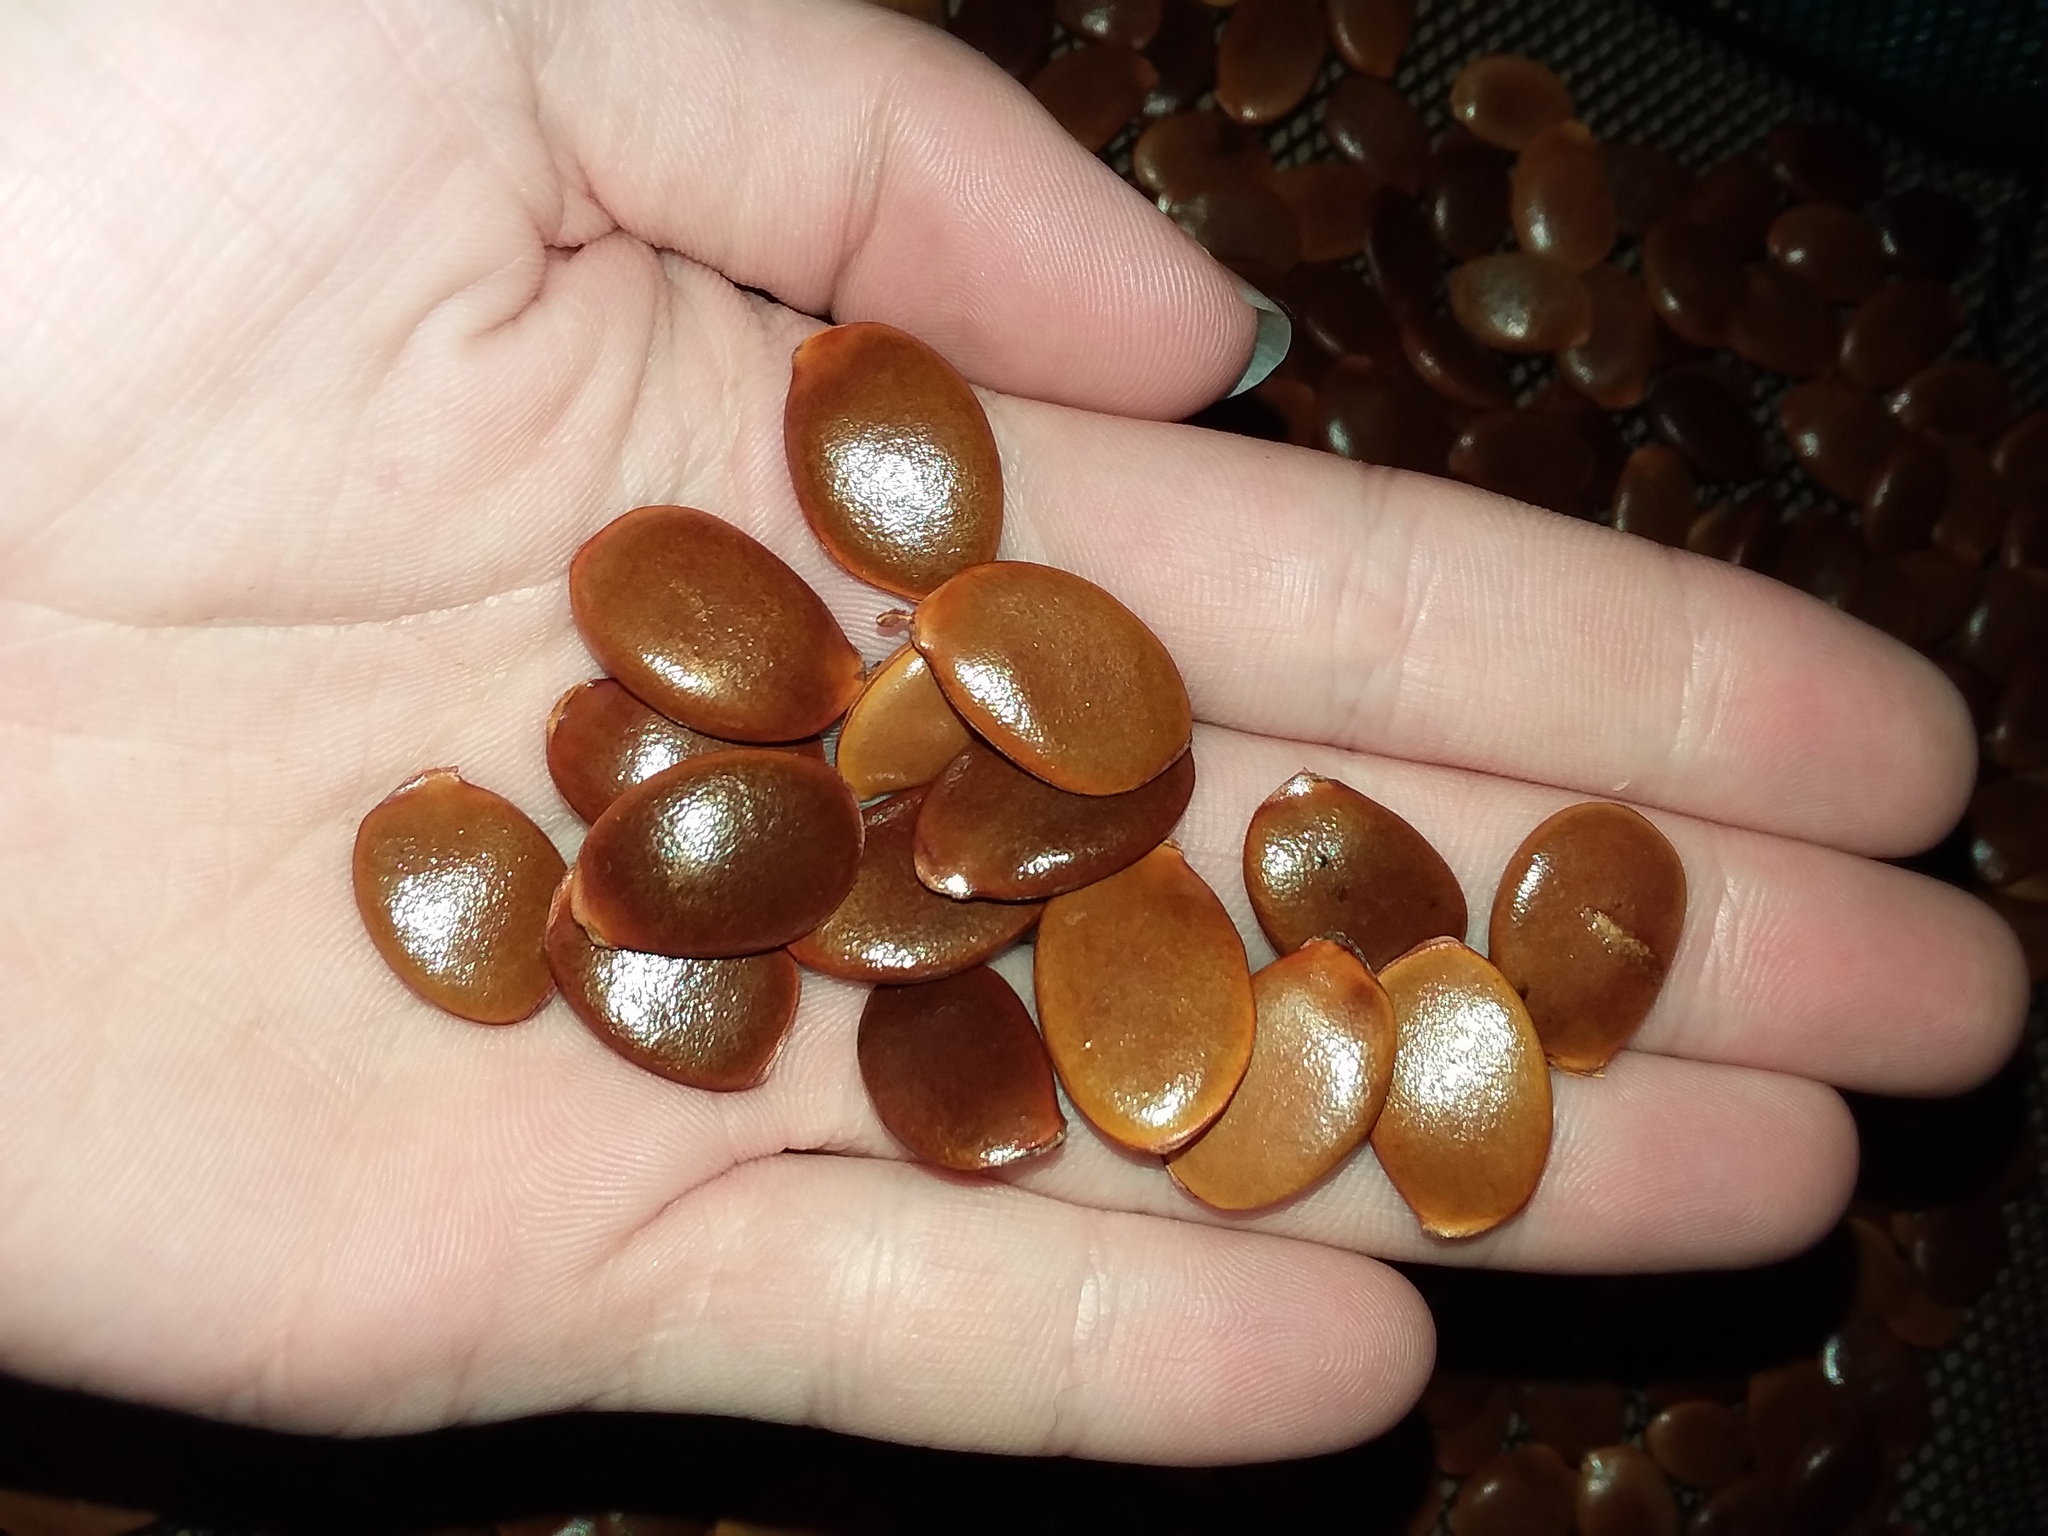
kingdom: Plantae
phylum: Tracheophyta
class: Magnoliopsida
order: Ericales
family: Ebenaceae
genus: Diospyros
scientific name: Diospyros virginiana
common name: Persimmon
